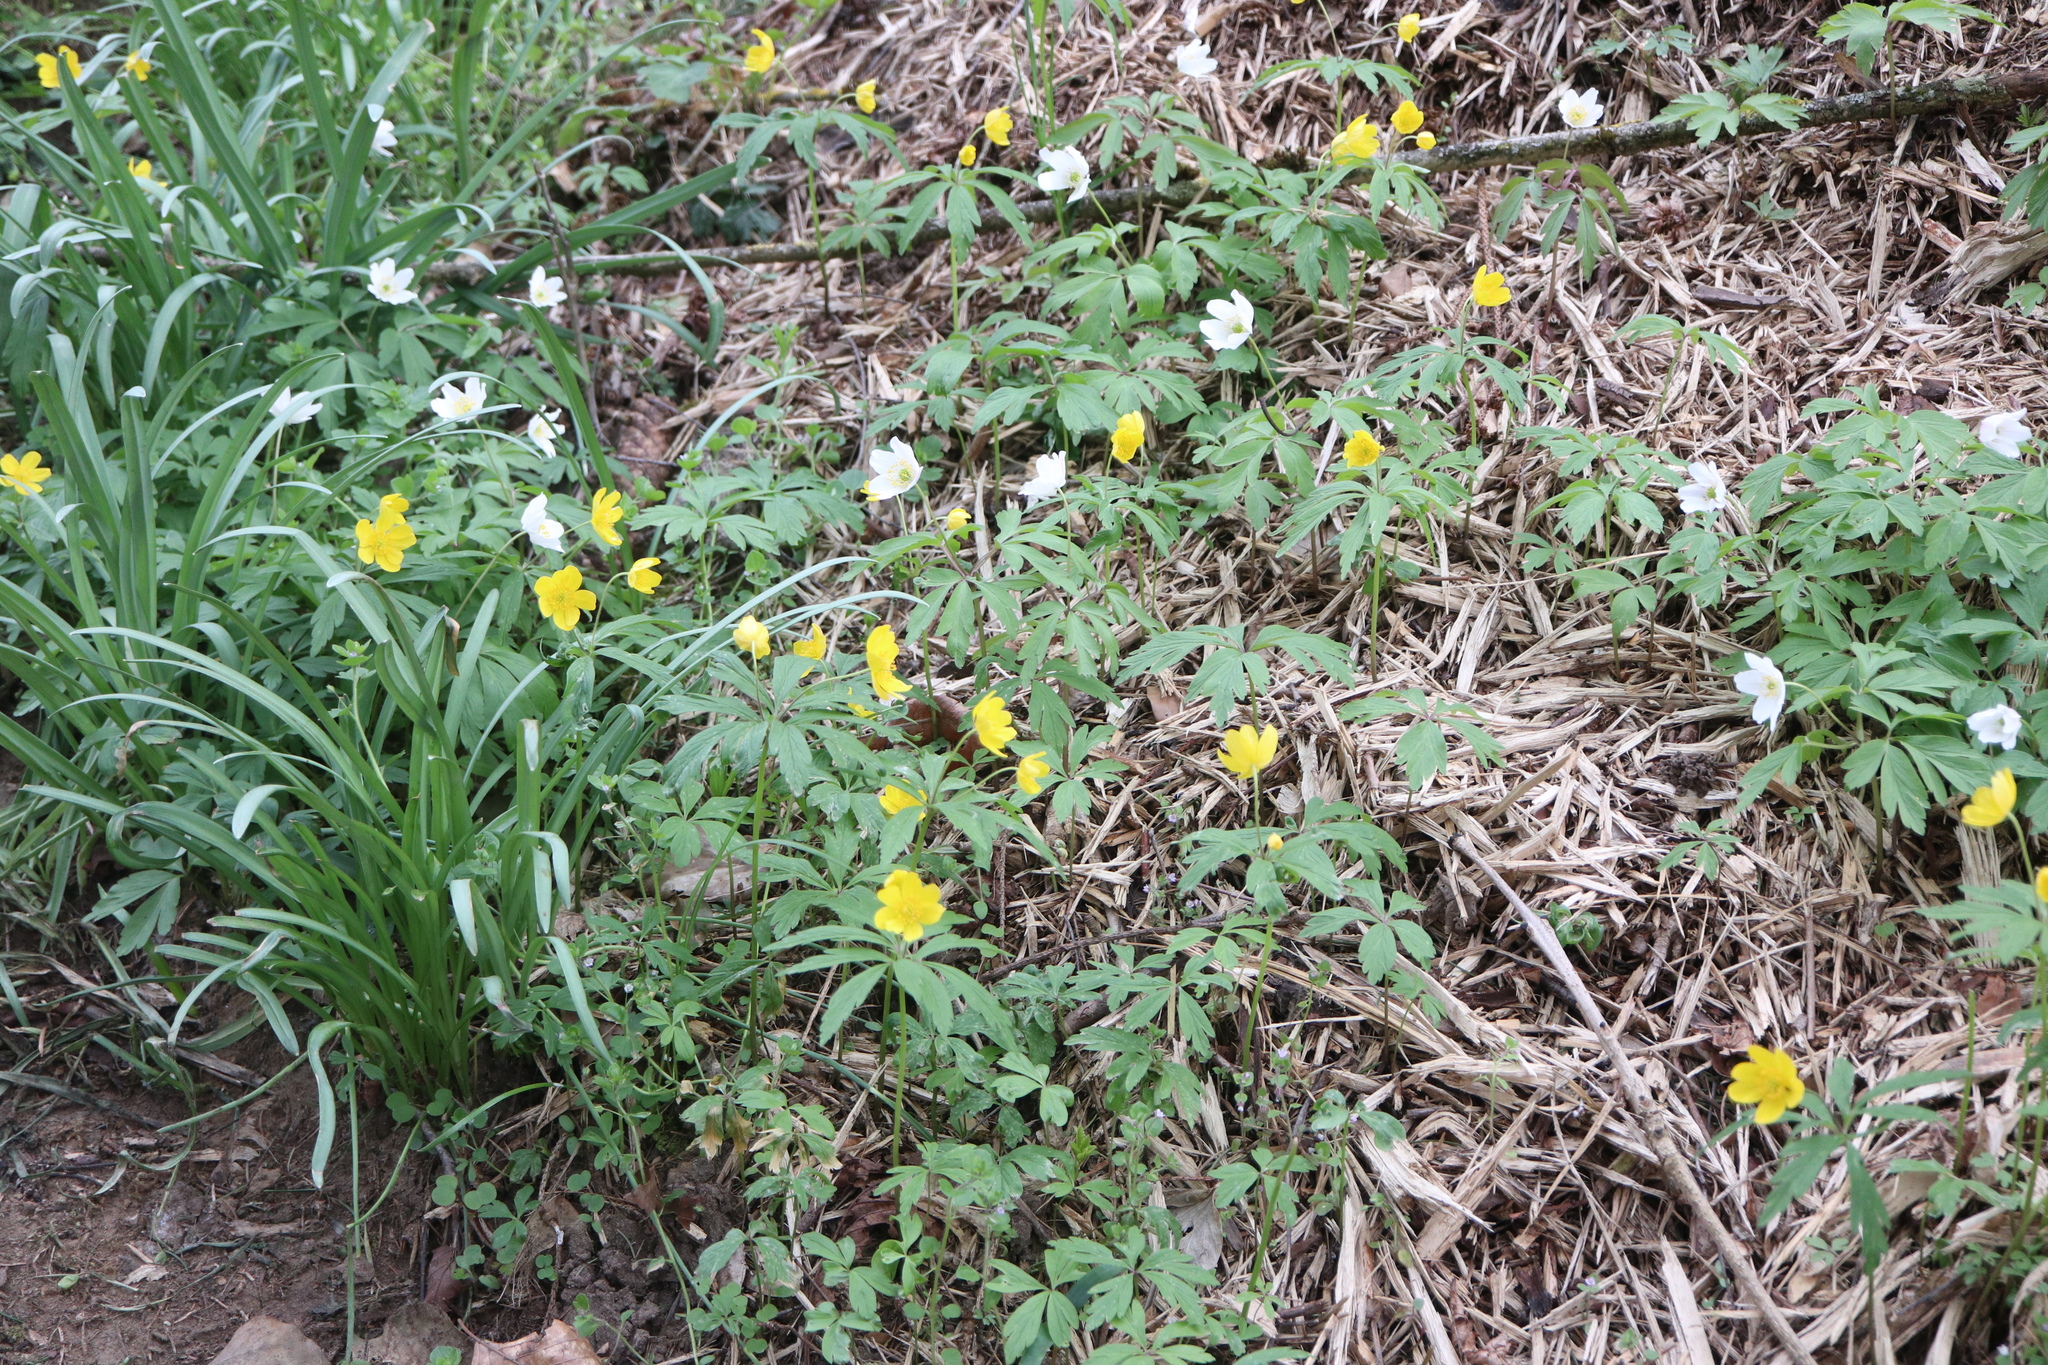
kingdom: Plantae
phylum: Tracheophyta
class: Magnoliopsida
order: Ranunculales
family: Ranunculaceae
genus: Anemone
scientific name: Anemone ranunculoides
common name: Yellow anemone
